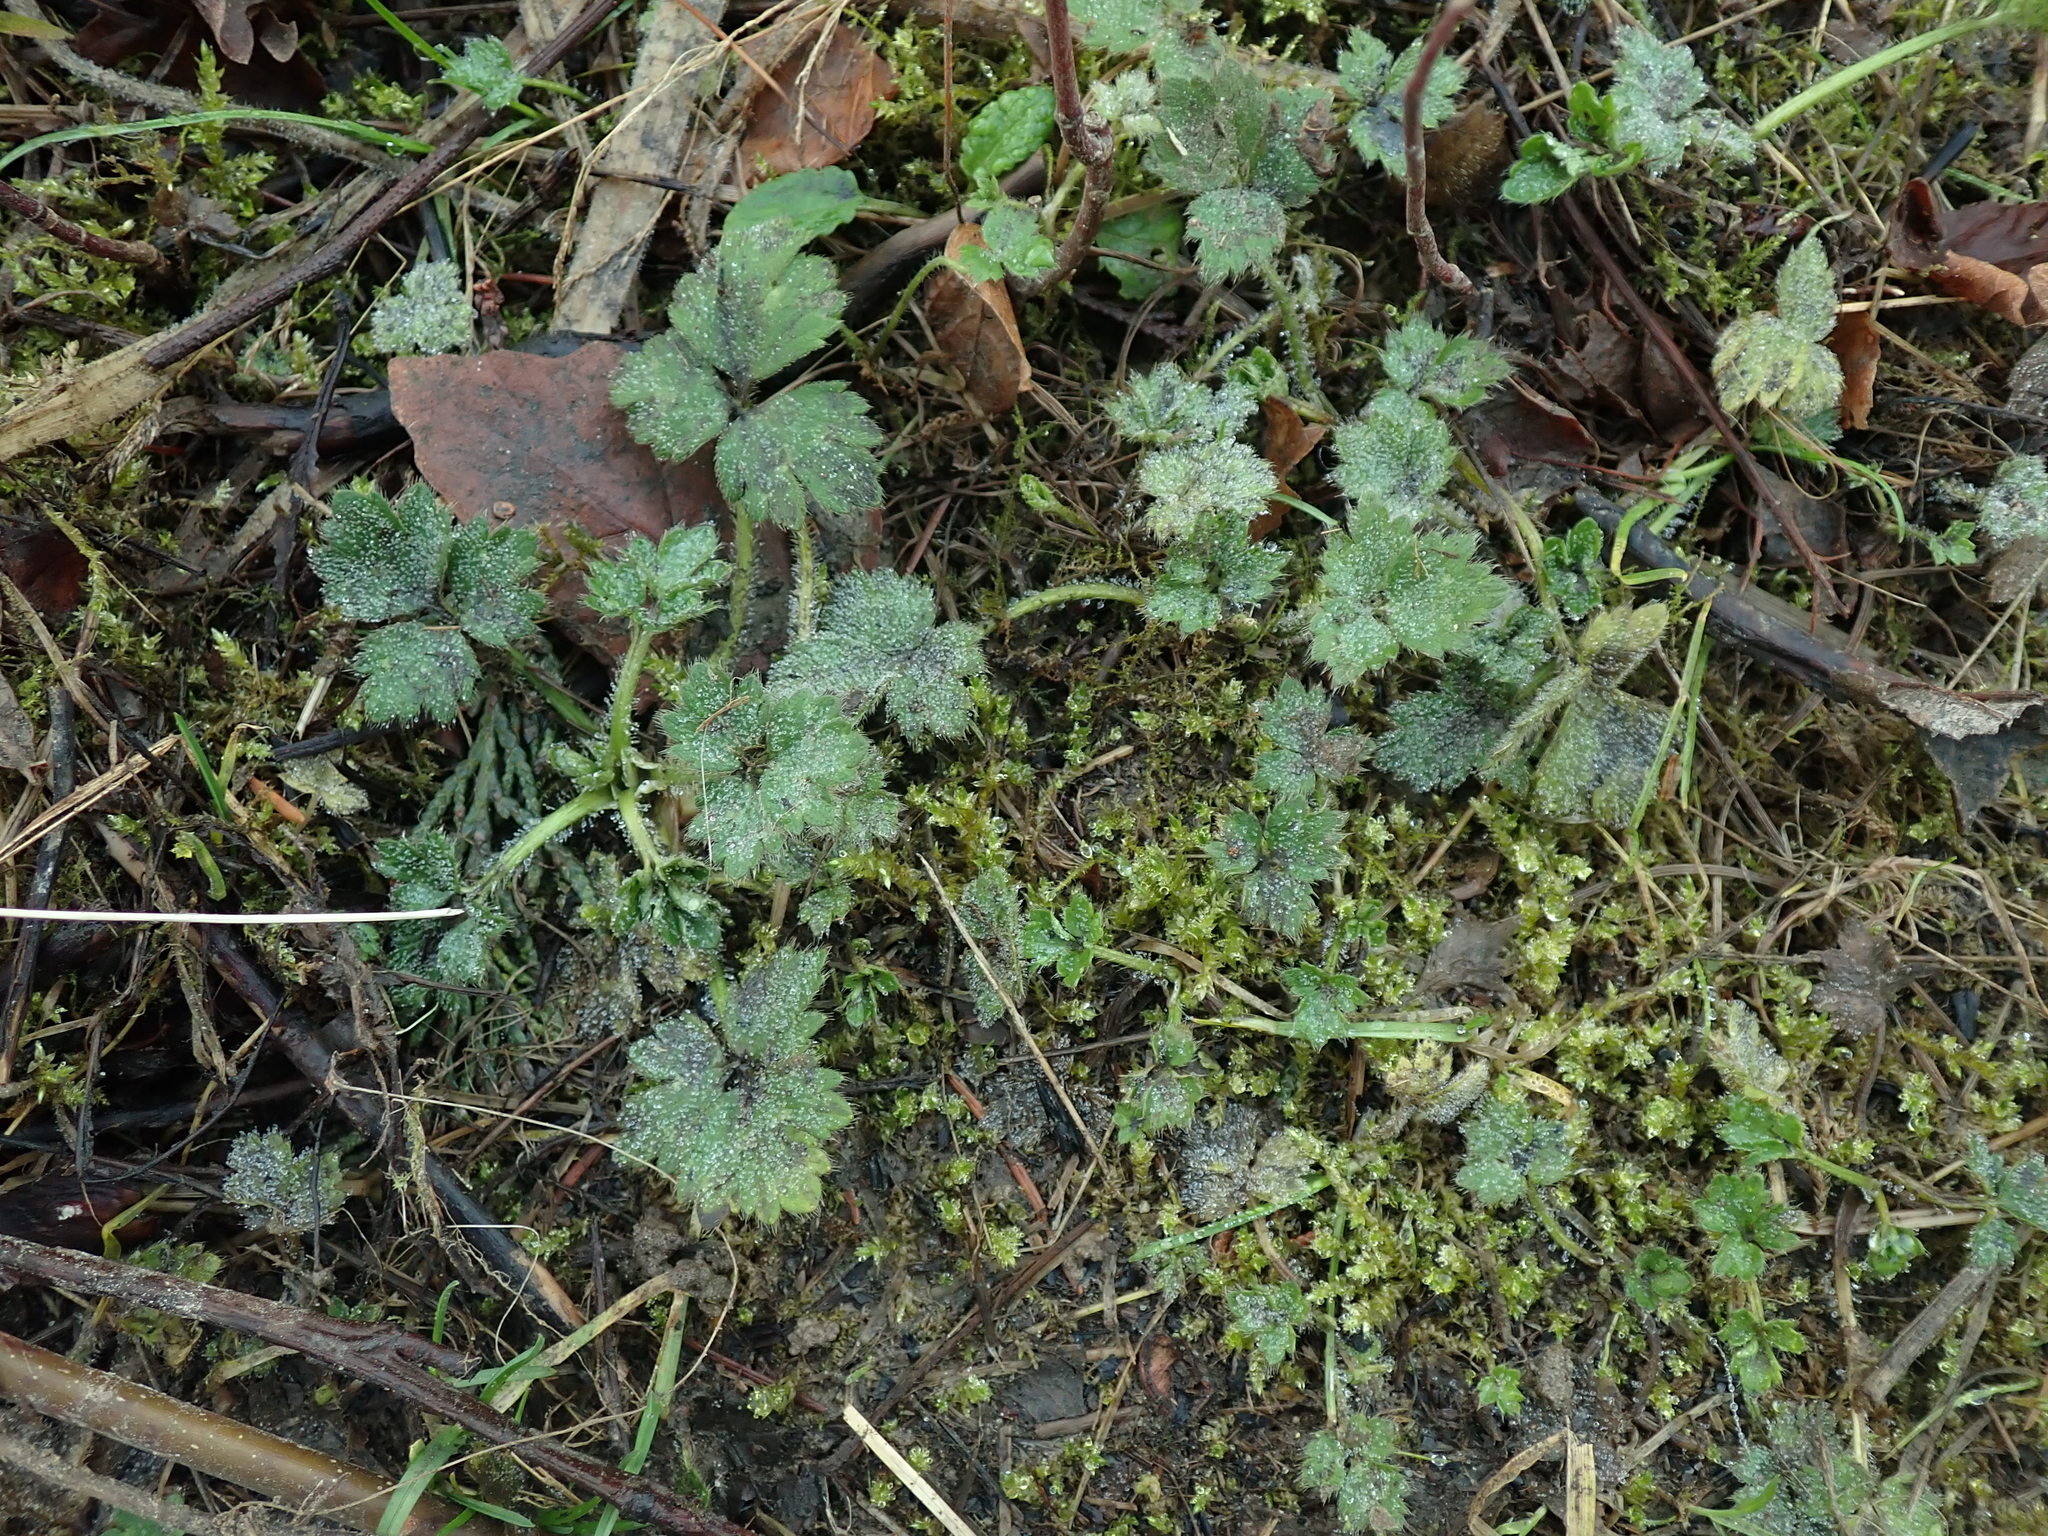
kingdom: Plantae
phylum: Tracheophyta
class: Magnoliopsida
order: Ranunculales
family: Ranunculaceae
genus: Ranunculus
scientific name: Ranunculus repens
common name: Creeping buttercup
